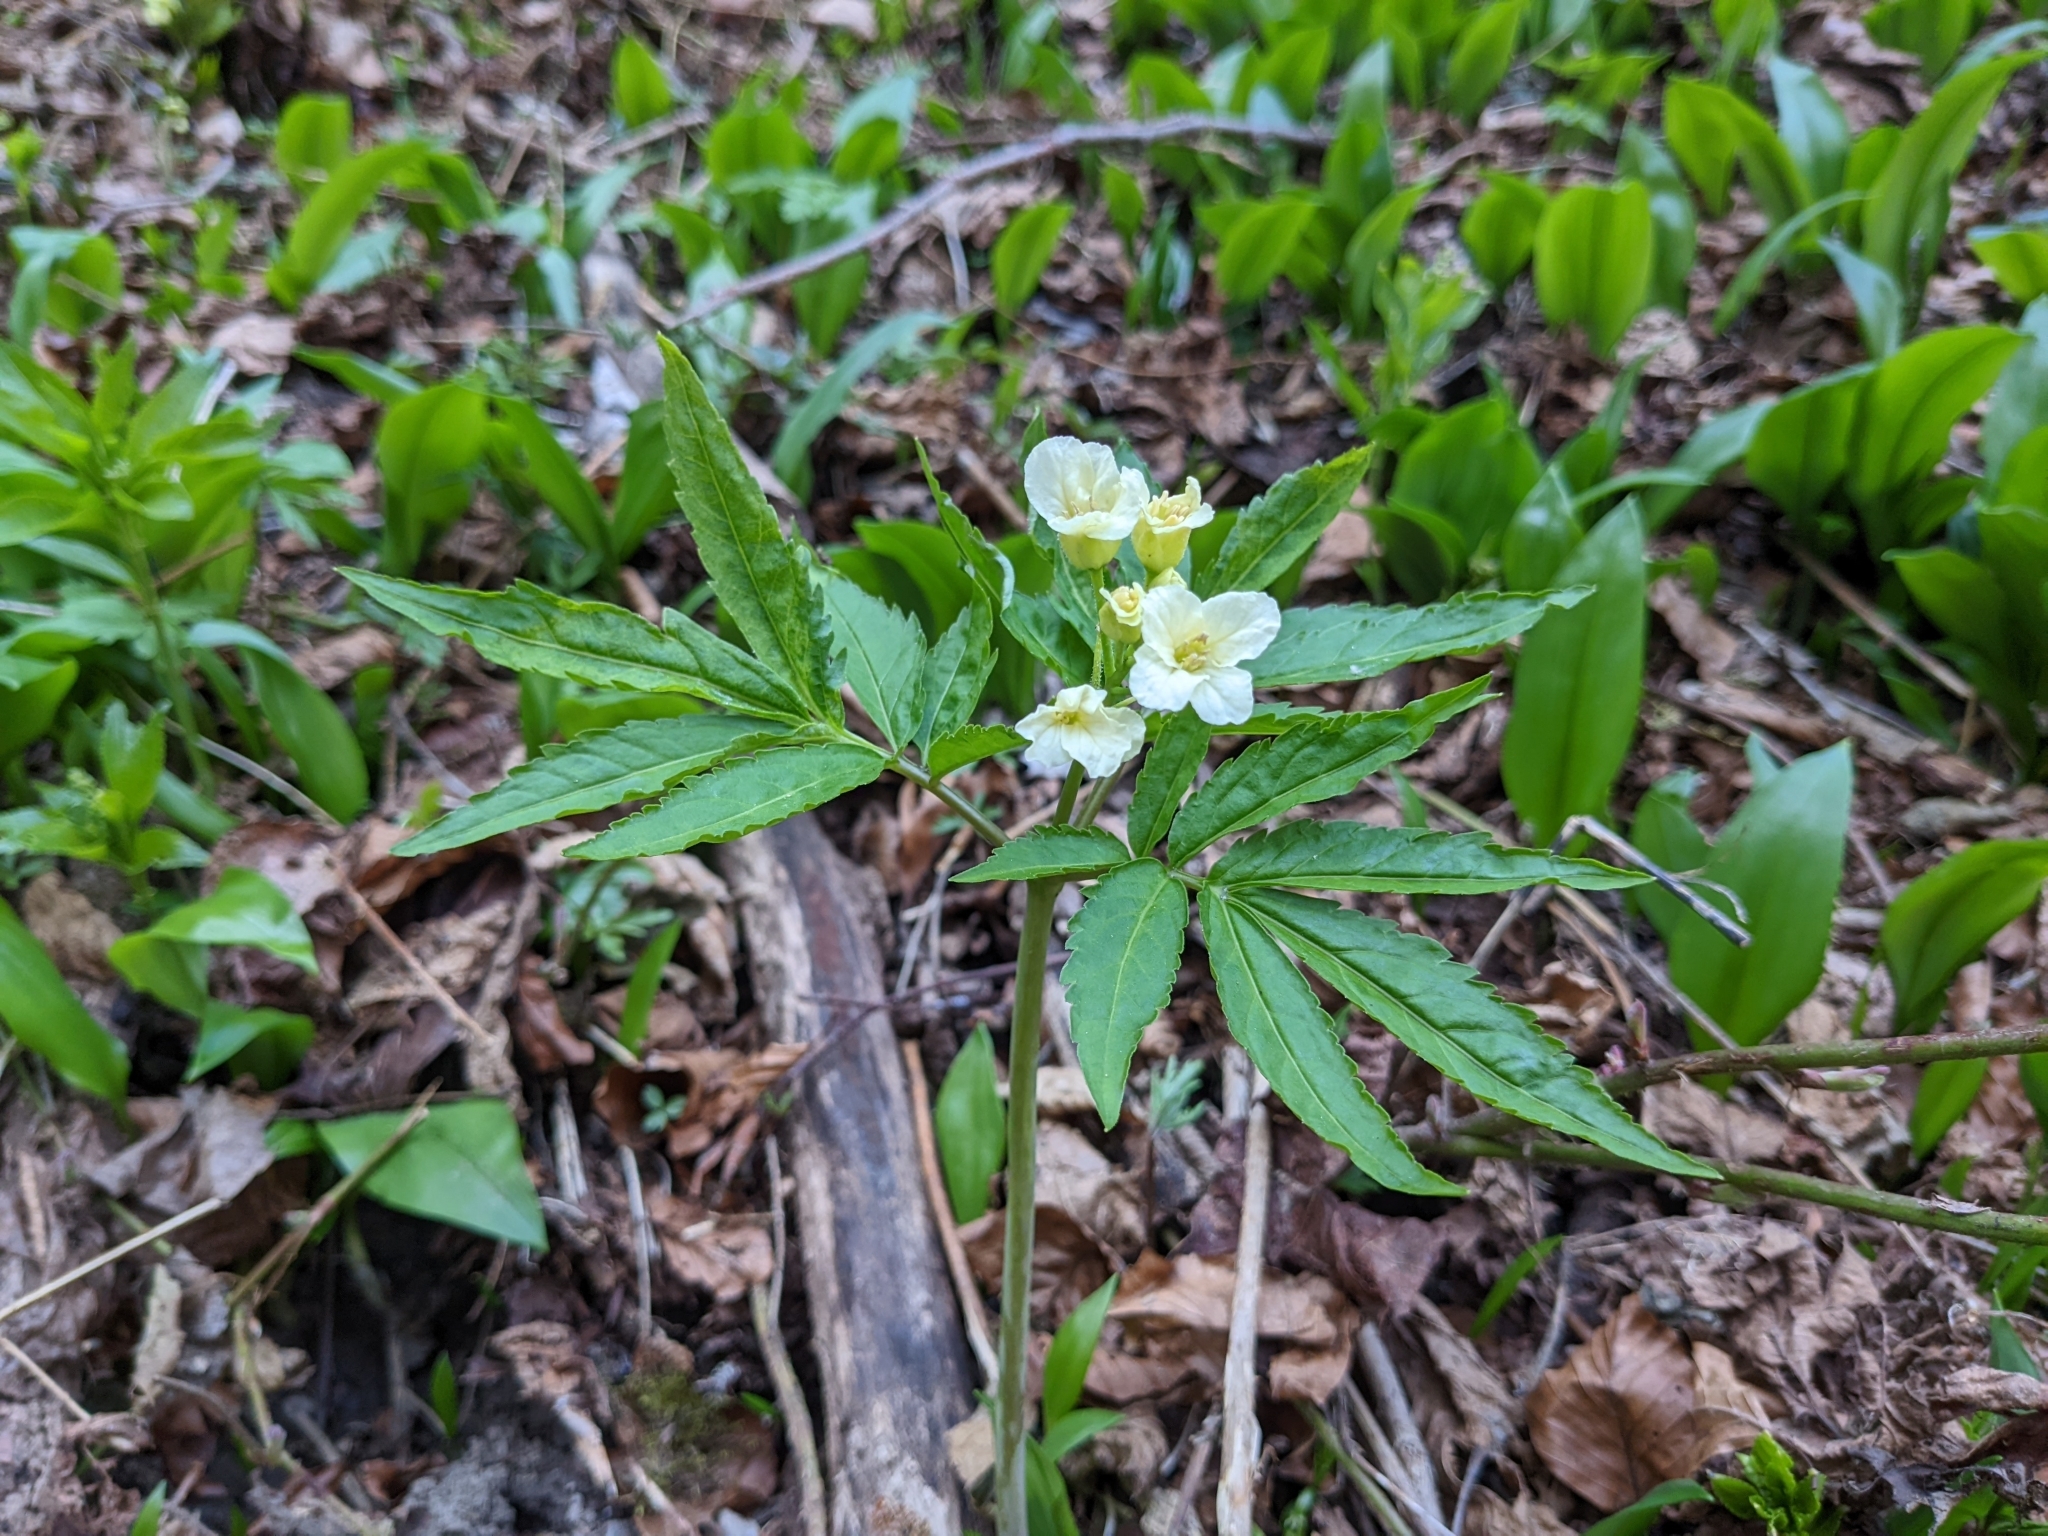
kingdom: Plantae
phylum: Tracheophyta
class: Magnoliopsida
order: Brassicales
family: Brassicaceae
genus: Cardamine
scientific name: Cardamine kitaibelii
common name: Kitaibel's bitter-cress
